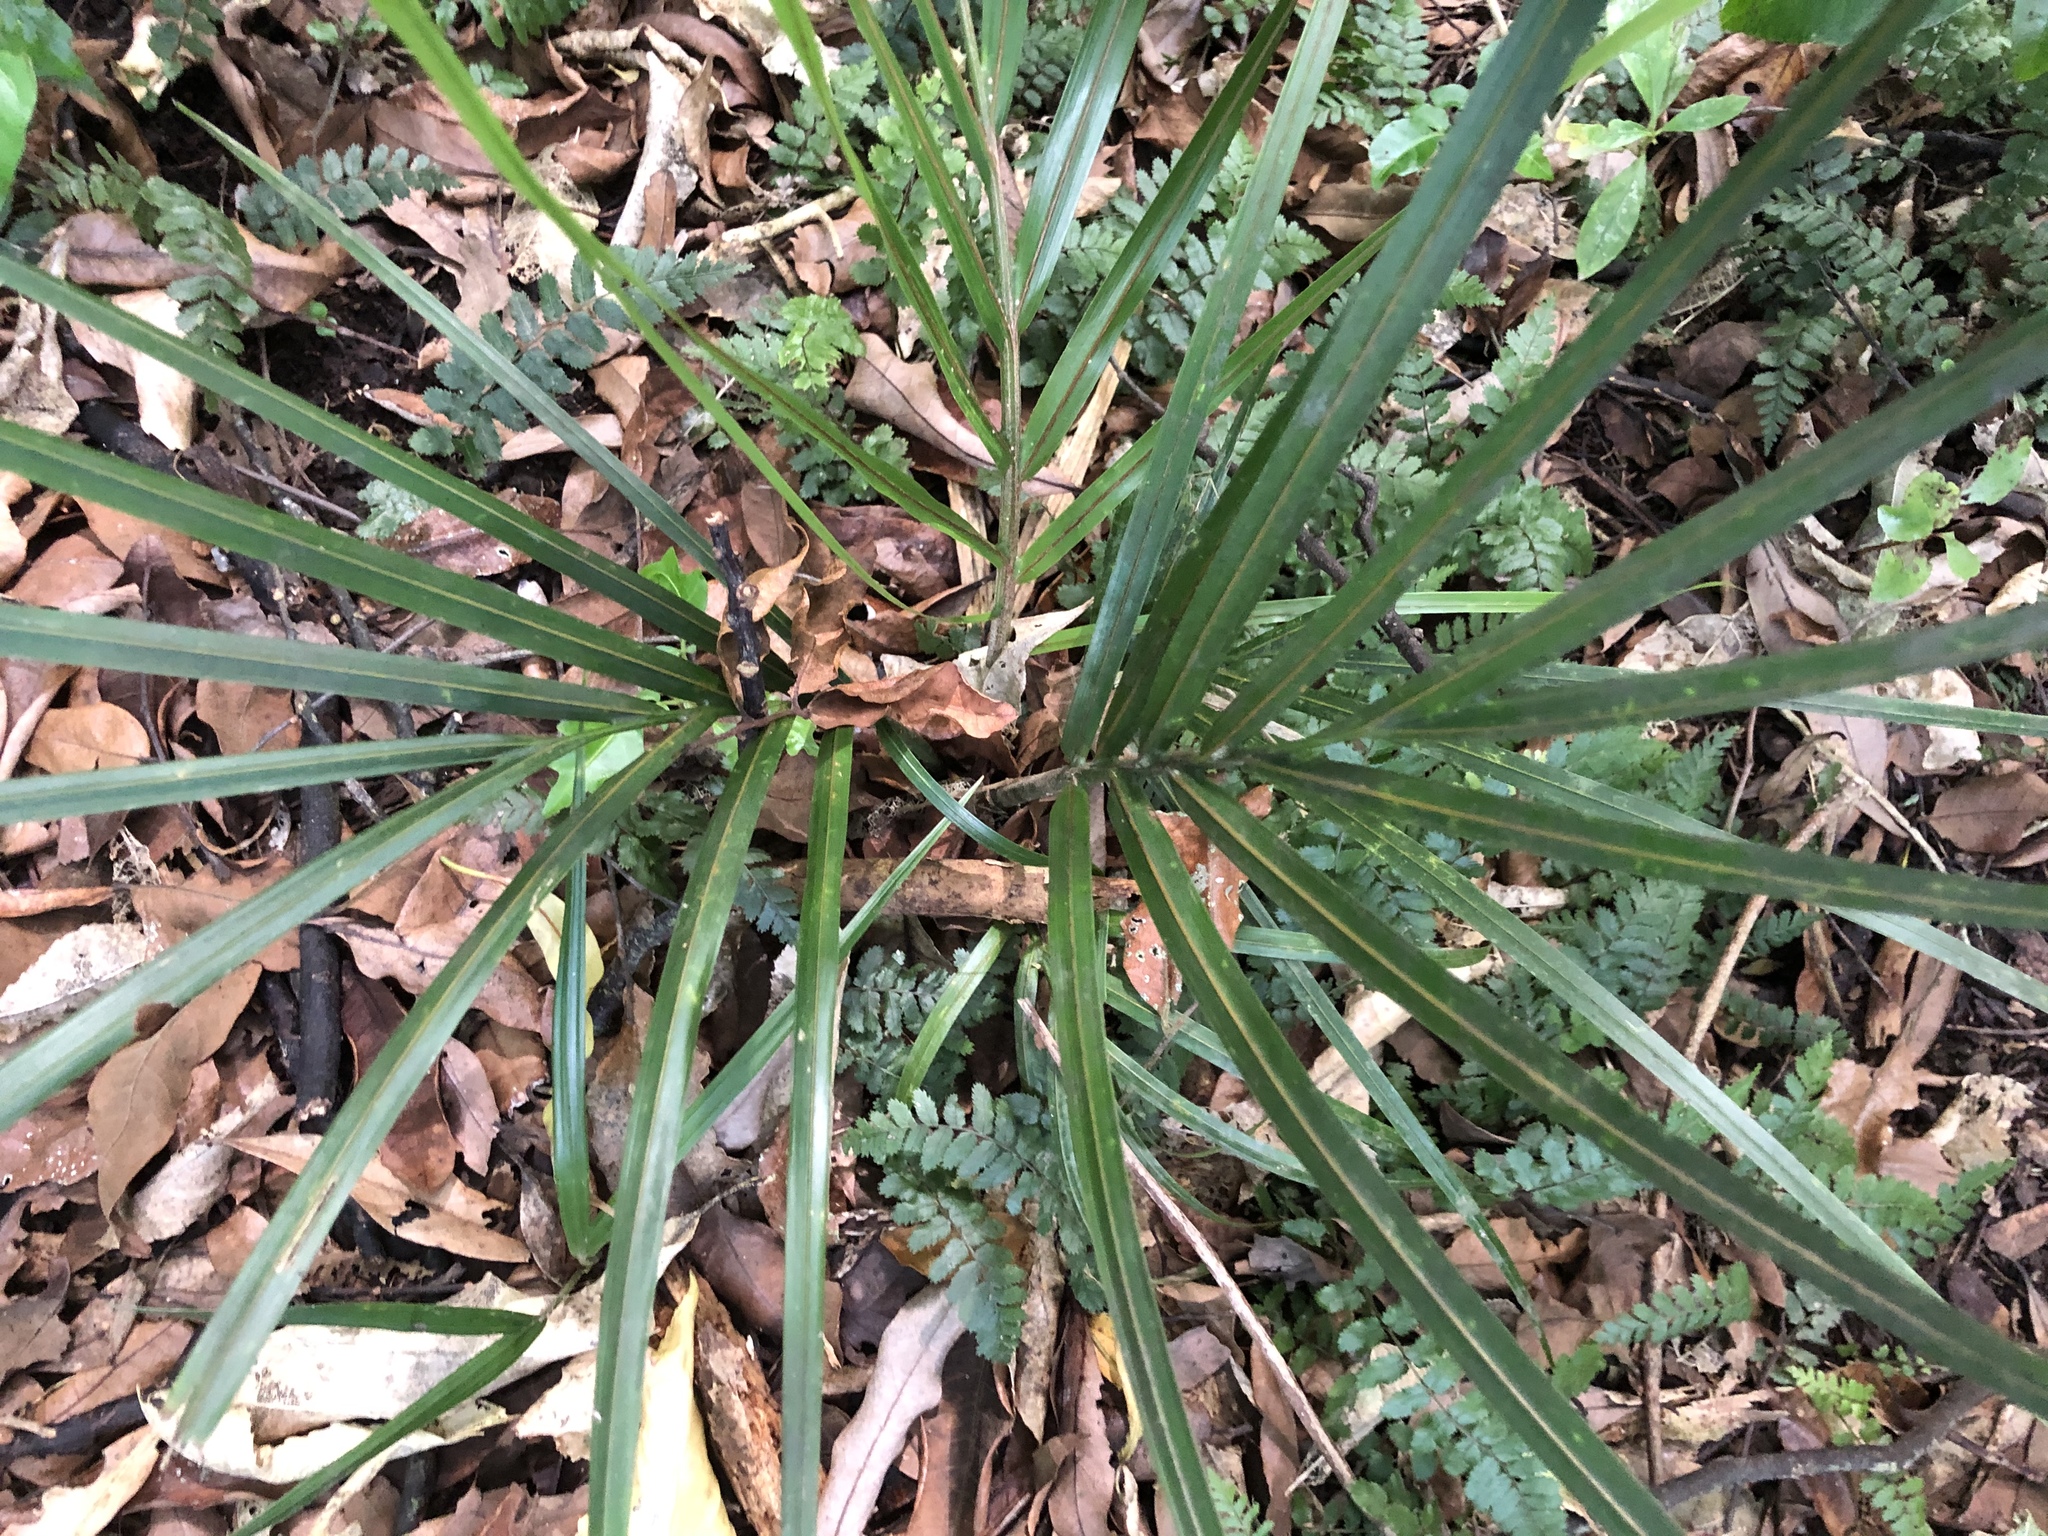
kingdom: Plantae
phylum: Tracheophyta
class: Liliopsida
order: Arecales
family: Arecaceae
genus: Rhopalostylis
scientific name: Rhopalostylis sapida
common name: Feather-duster palm
